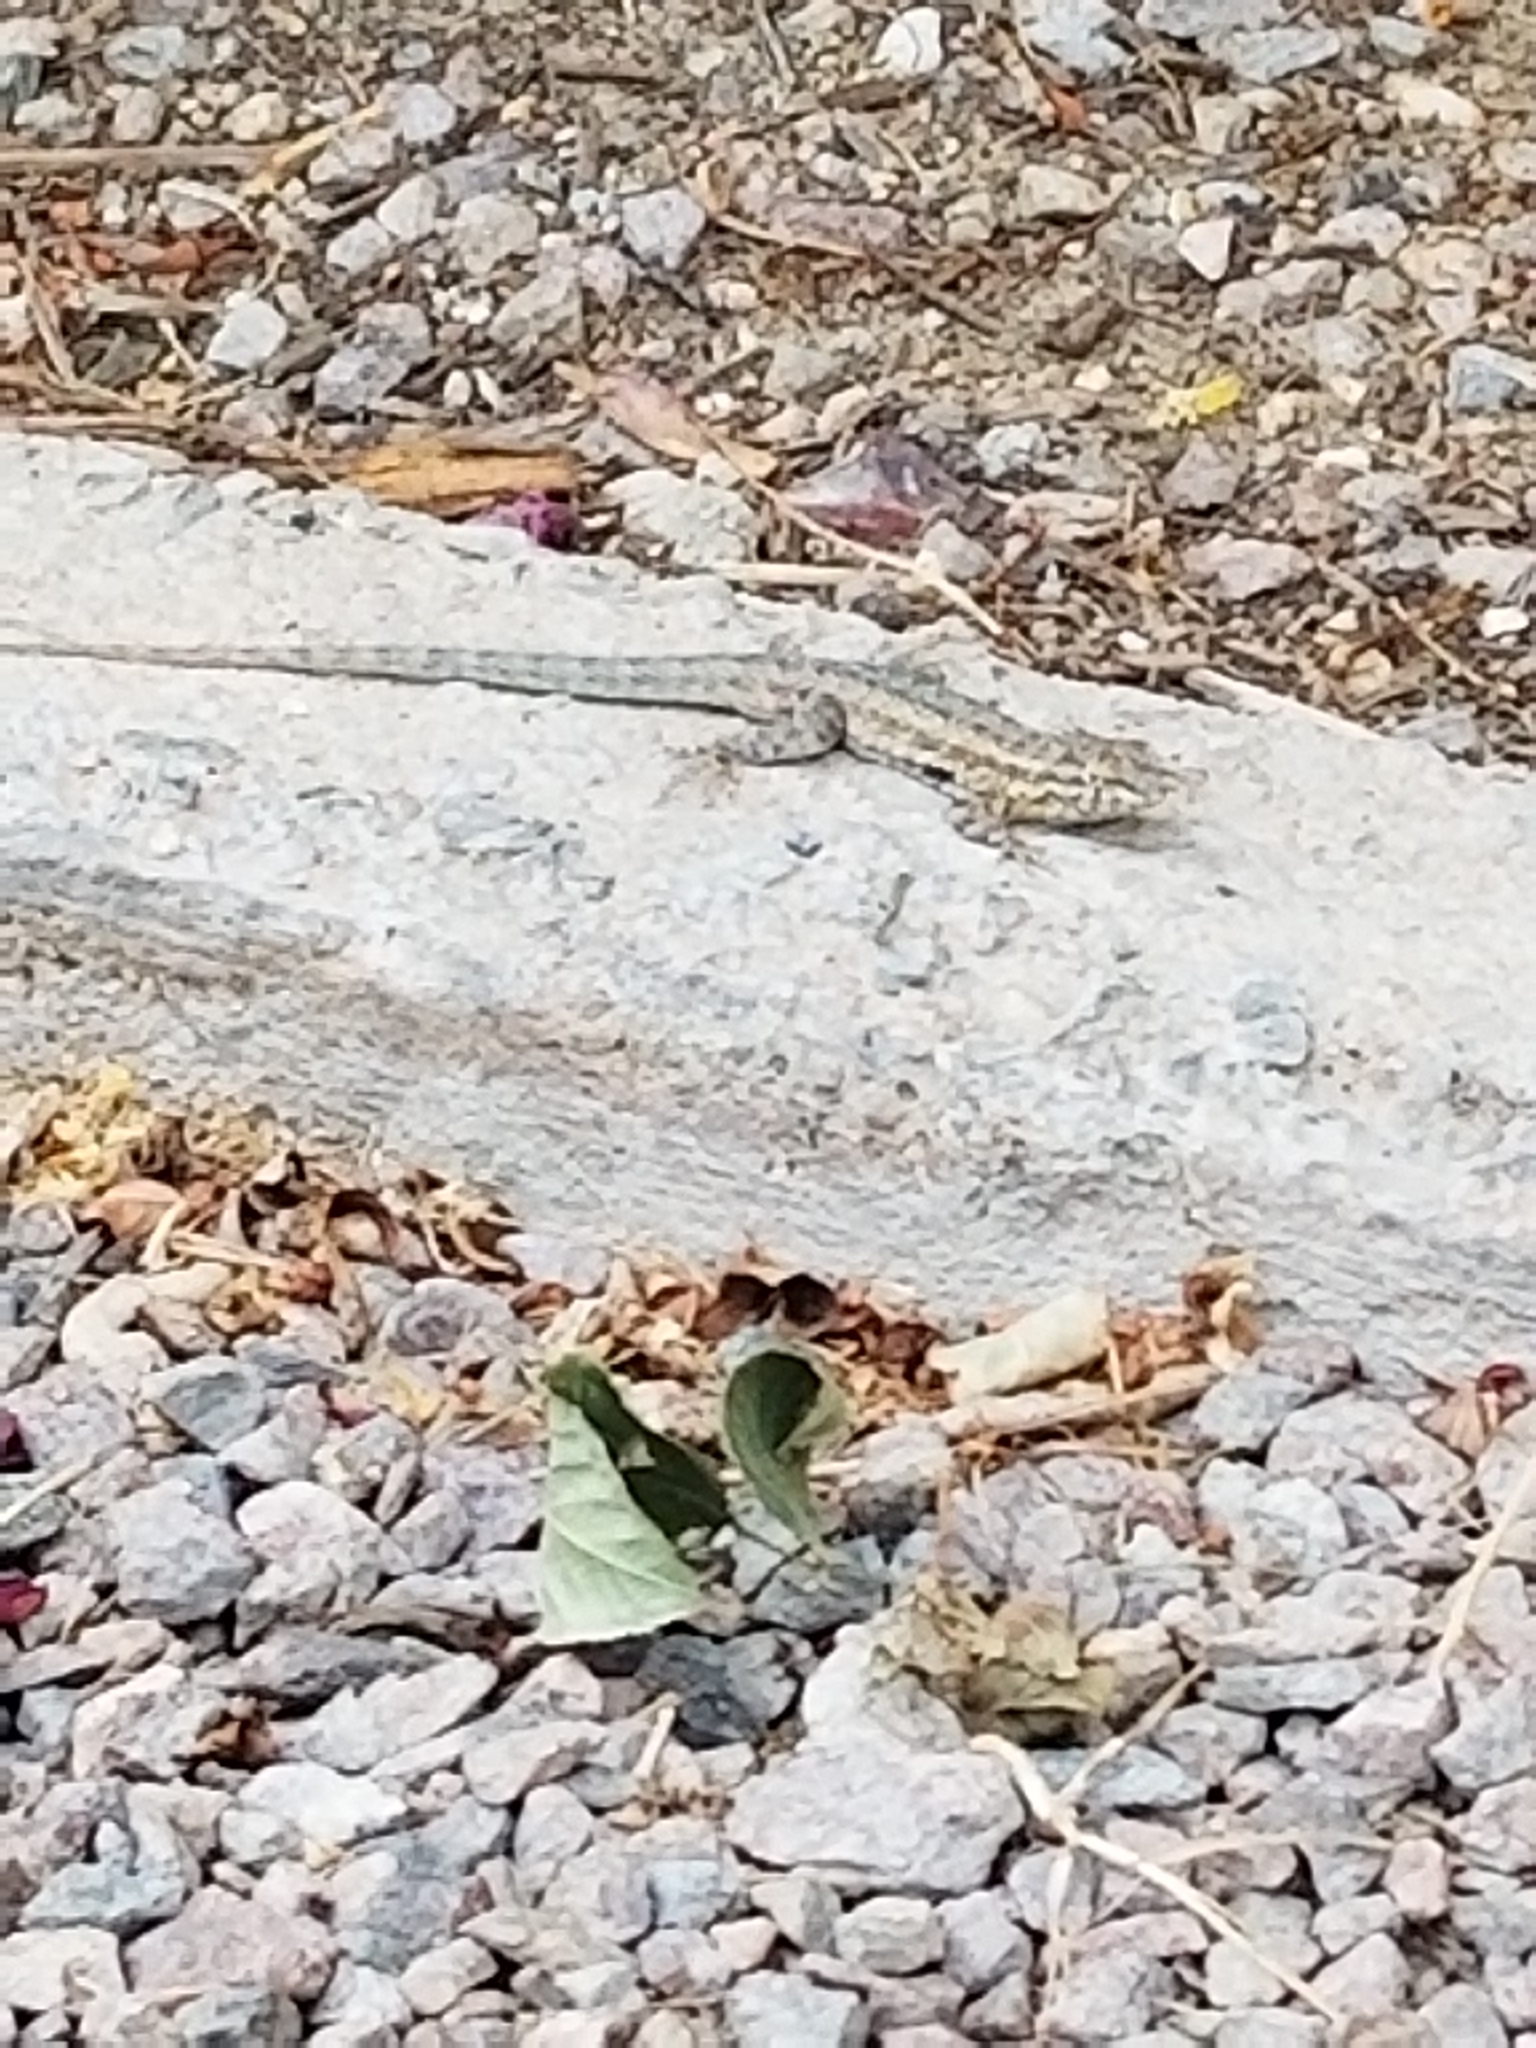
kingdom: Animalia
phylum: Chordata
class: Squamata
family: Phrynosomatidae
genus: Uta
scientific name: Uta stansburiana
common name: Side-blotched lizard
